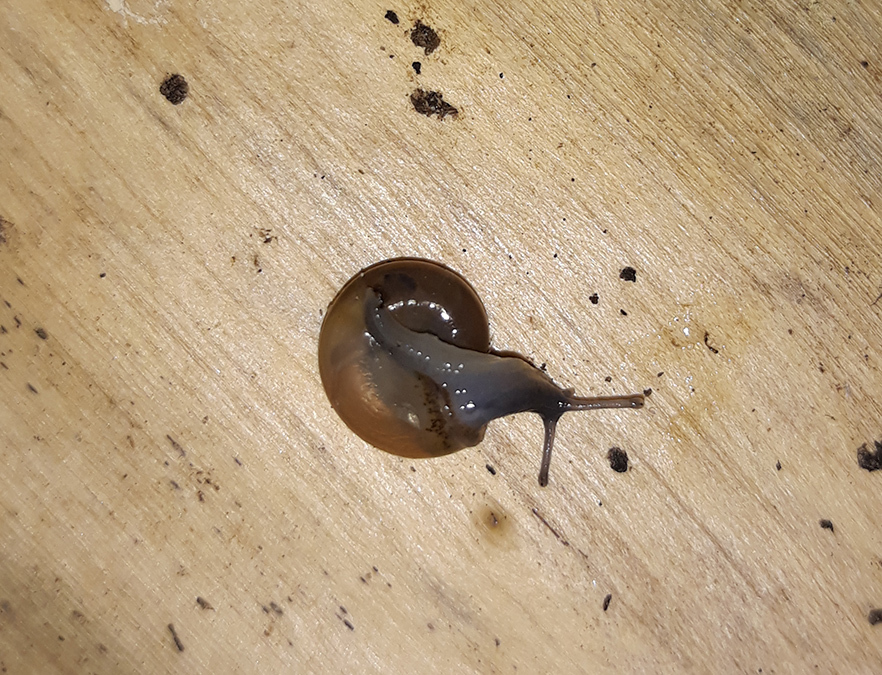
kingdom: Animalia
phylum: Mollusca
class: Gastropoda
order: Stylommatophora
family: Oxychilidae
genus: Oxychilus
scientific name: Oxychilus draparnaudi
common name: Draparnaud's glass snail
